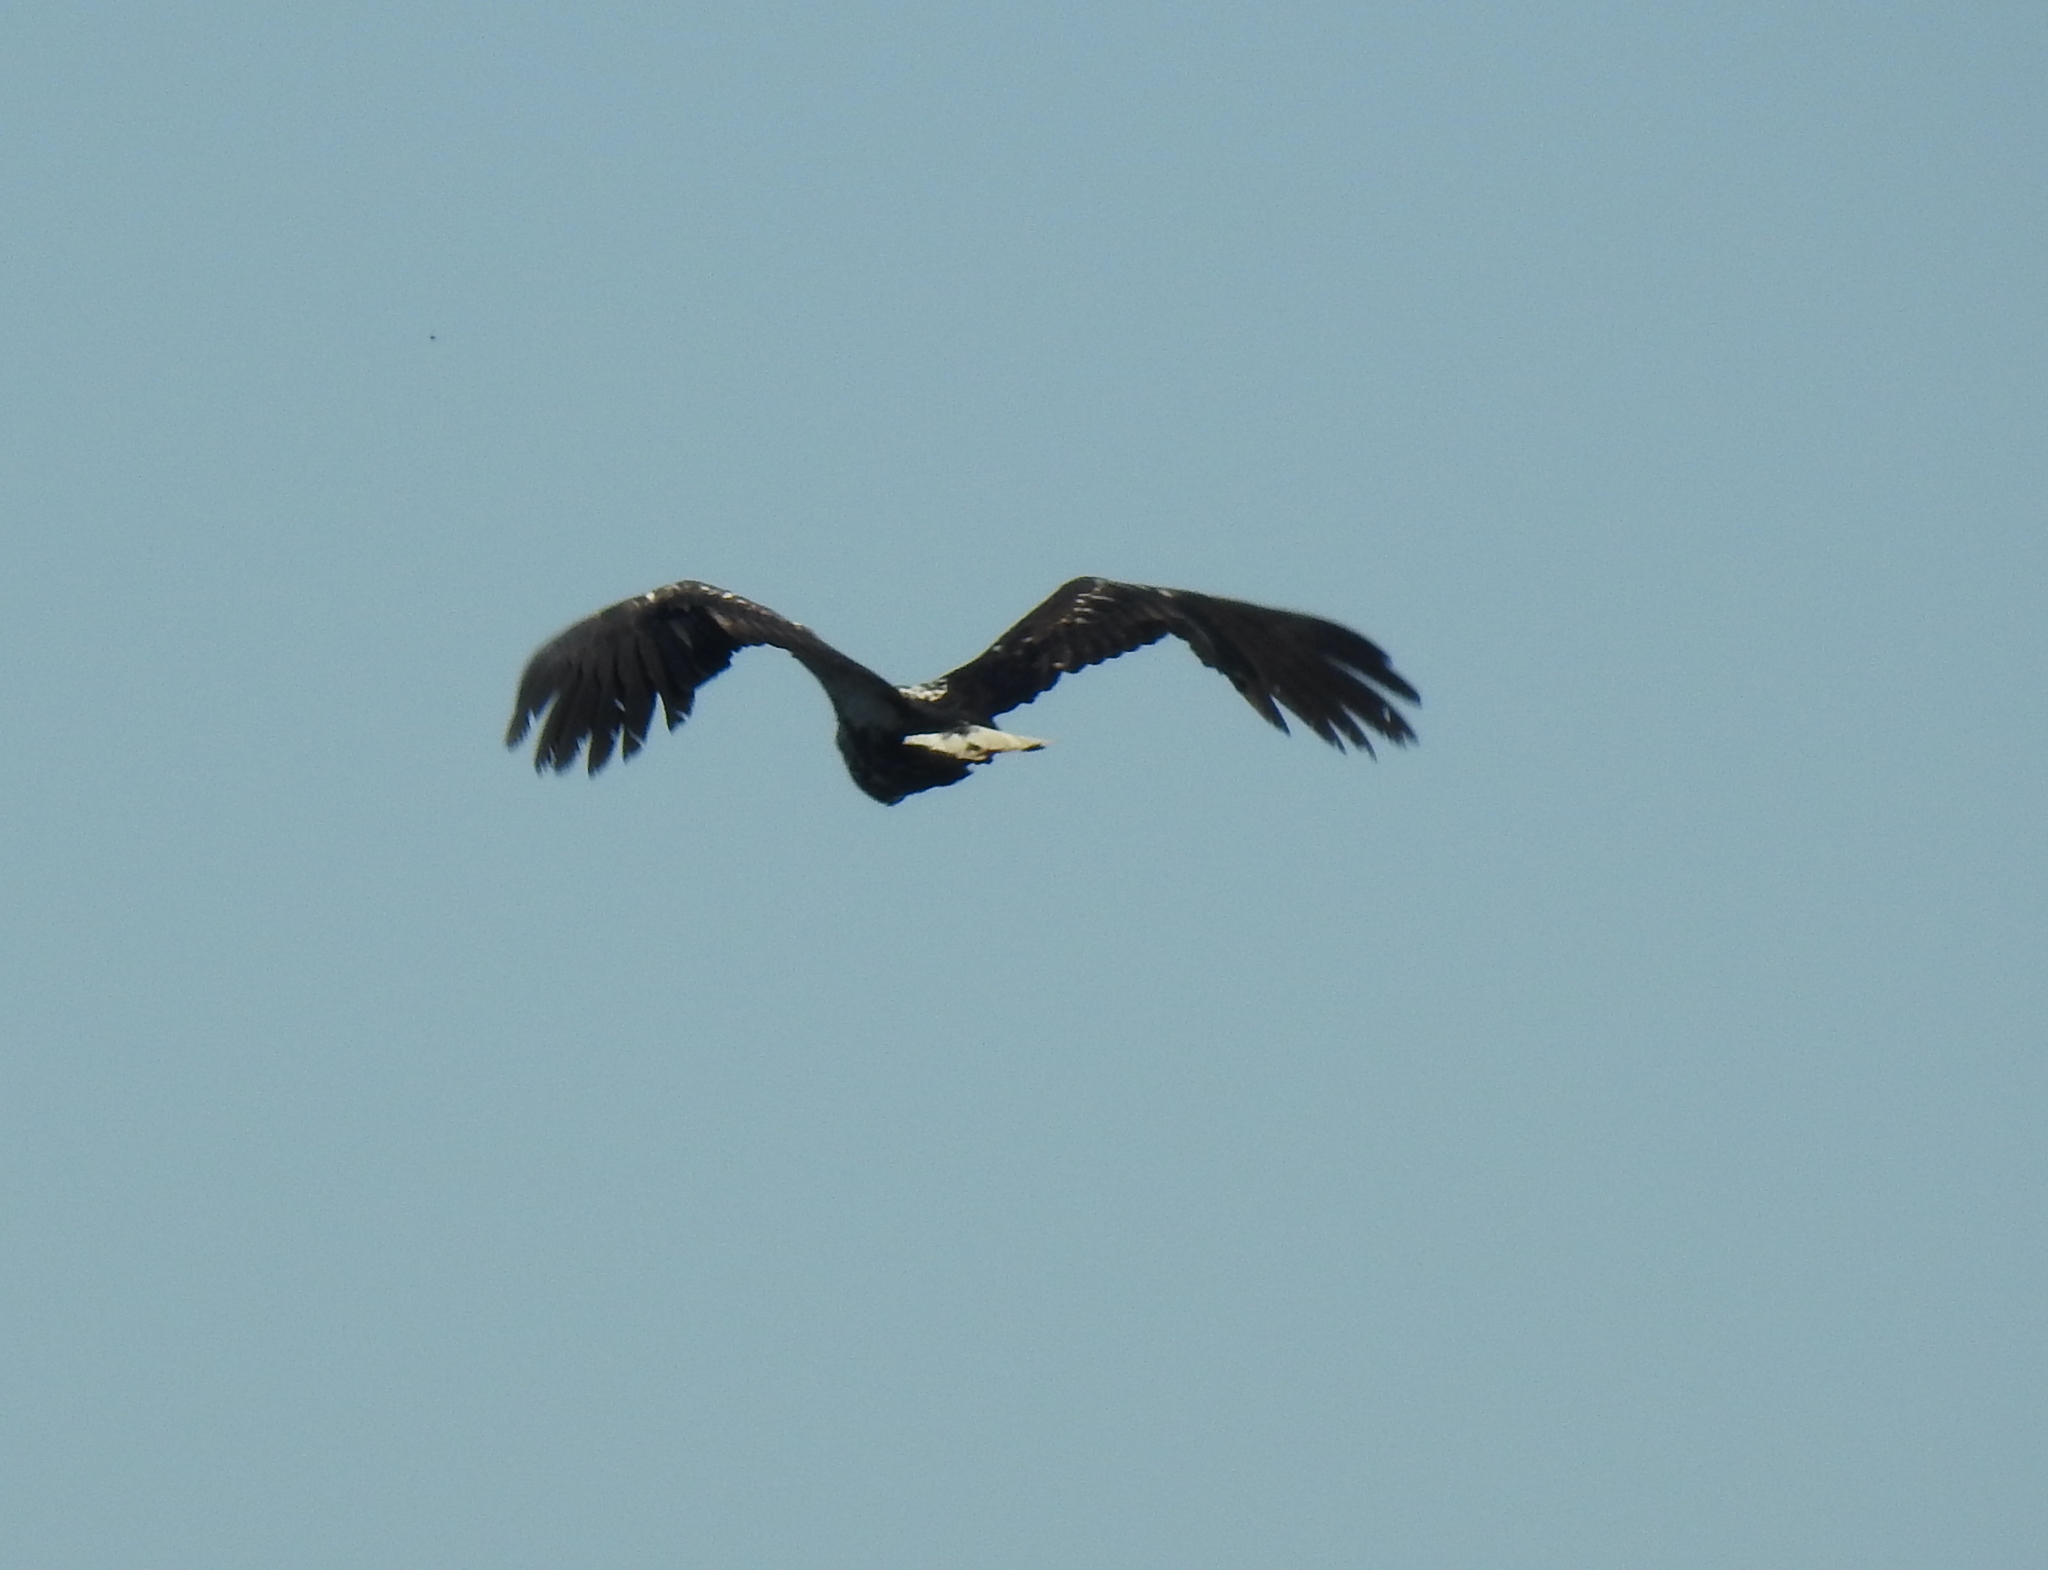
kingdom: Animalia
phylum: Chordata
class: Aves
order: Accipitriformes
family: Accipitridae
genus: Haliaeetus
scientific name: Haliaeetus vocifer
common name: African fish eagle
